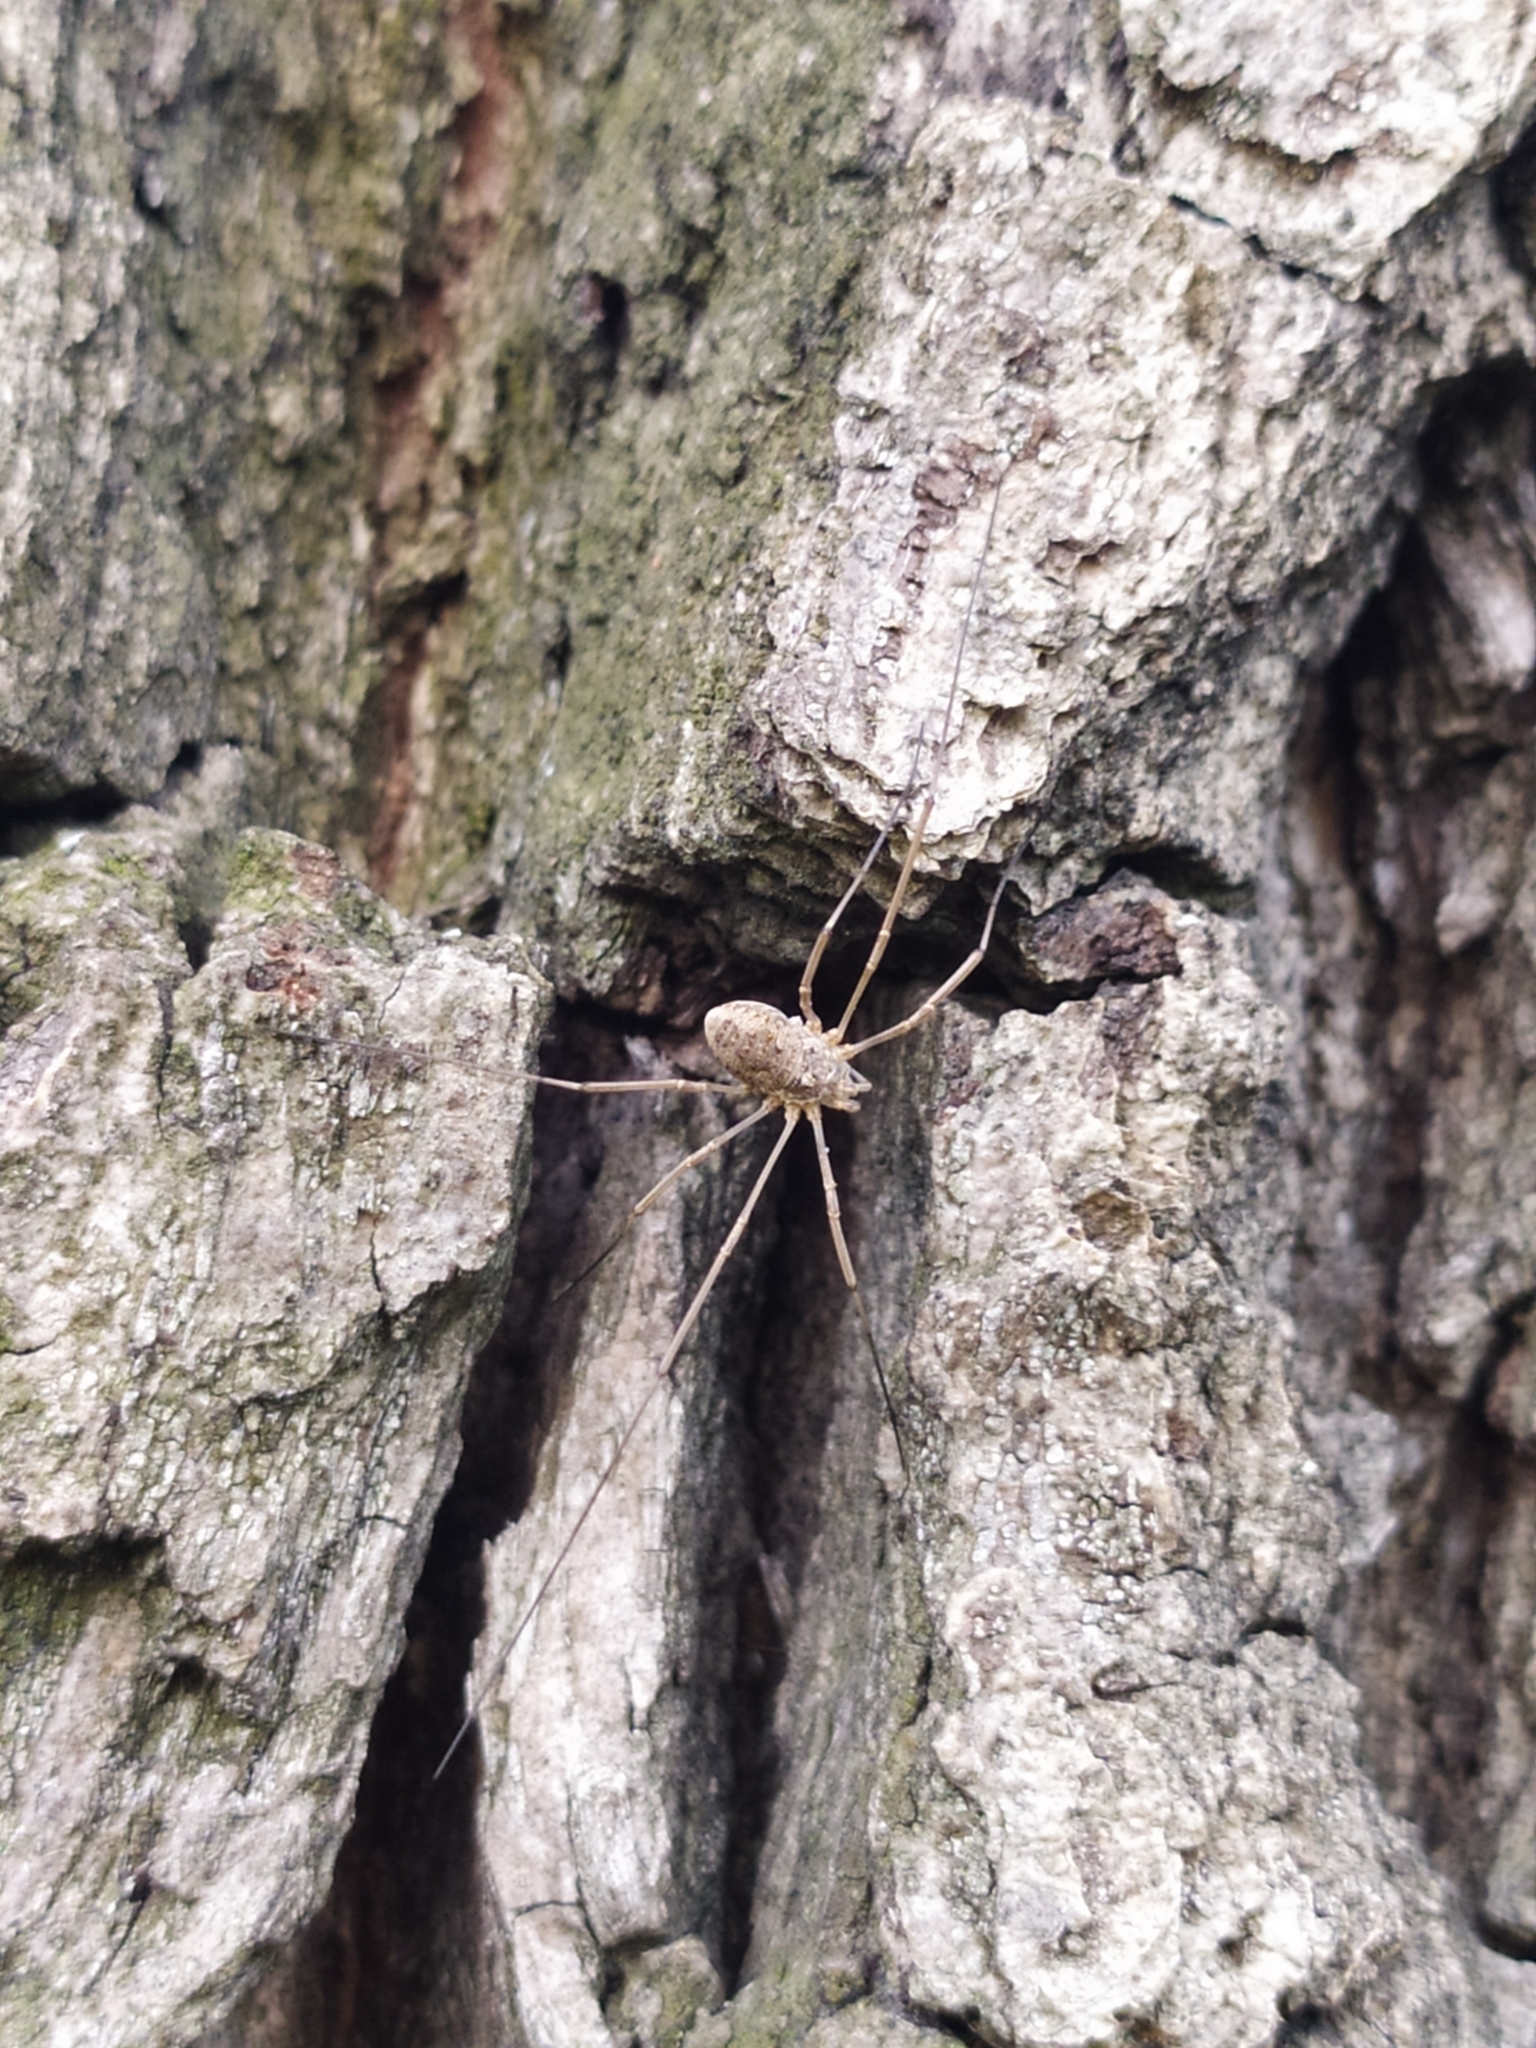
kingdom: Animalia
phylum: Arthropoda
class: Arachnida
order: Opiliones
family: Phalangiidae
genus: Phalangium
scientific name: Phalangium opilio
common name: Daddy longleg
